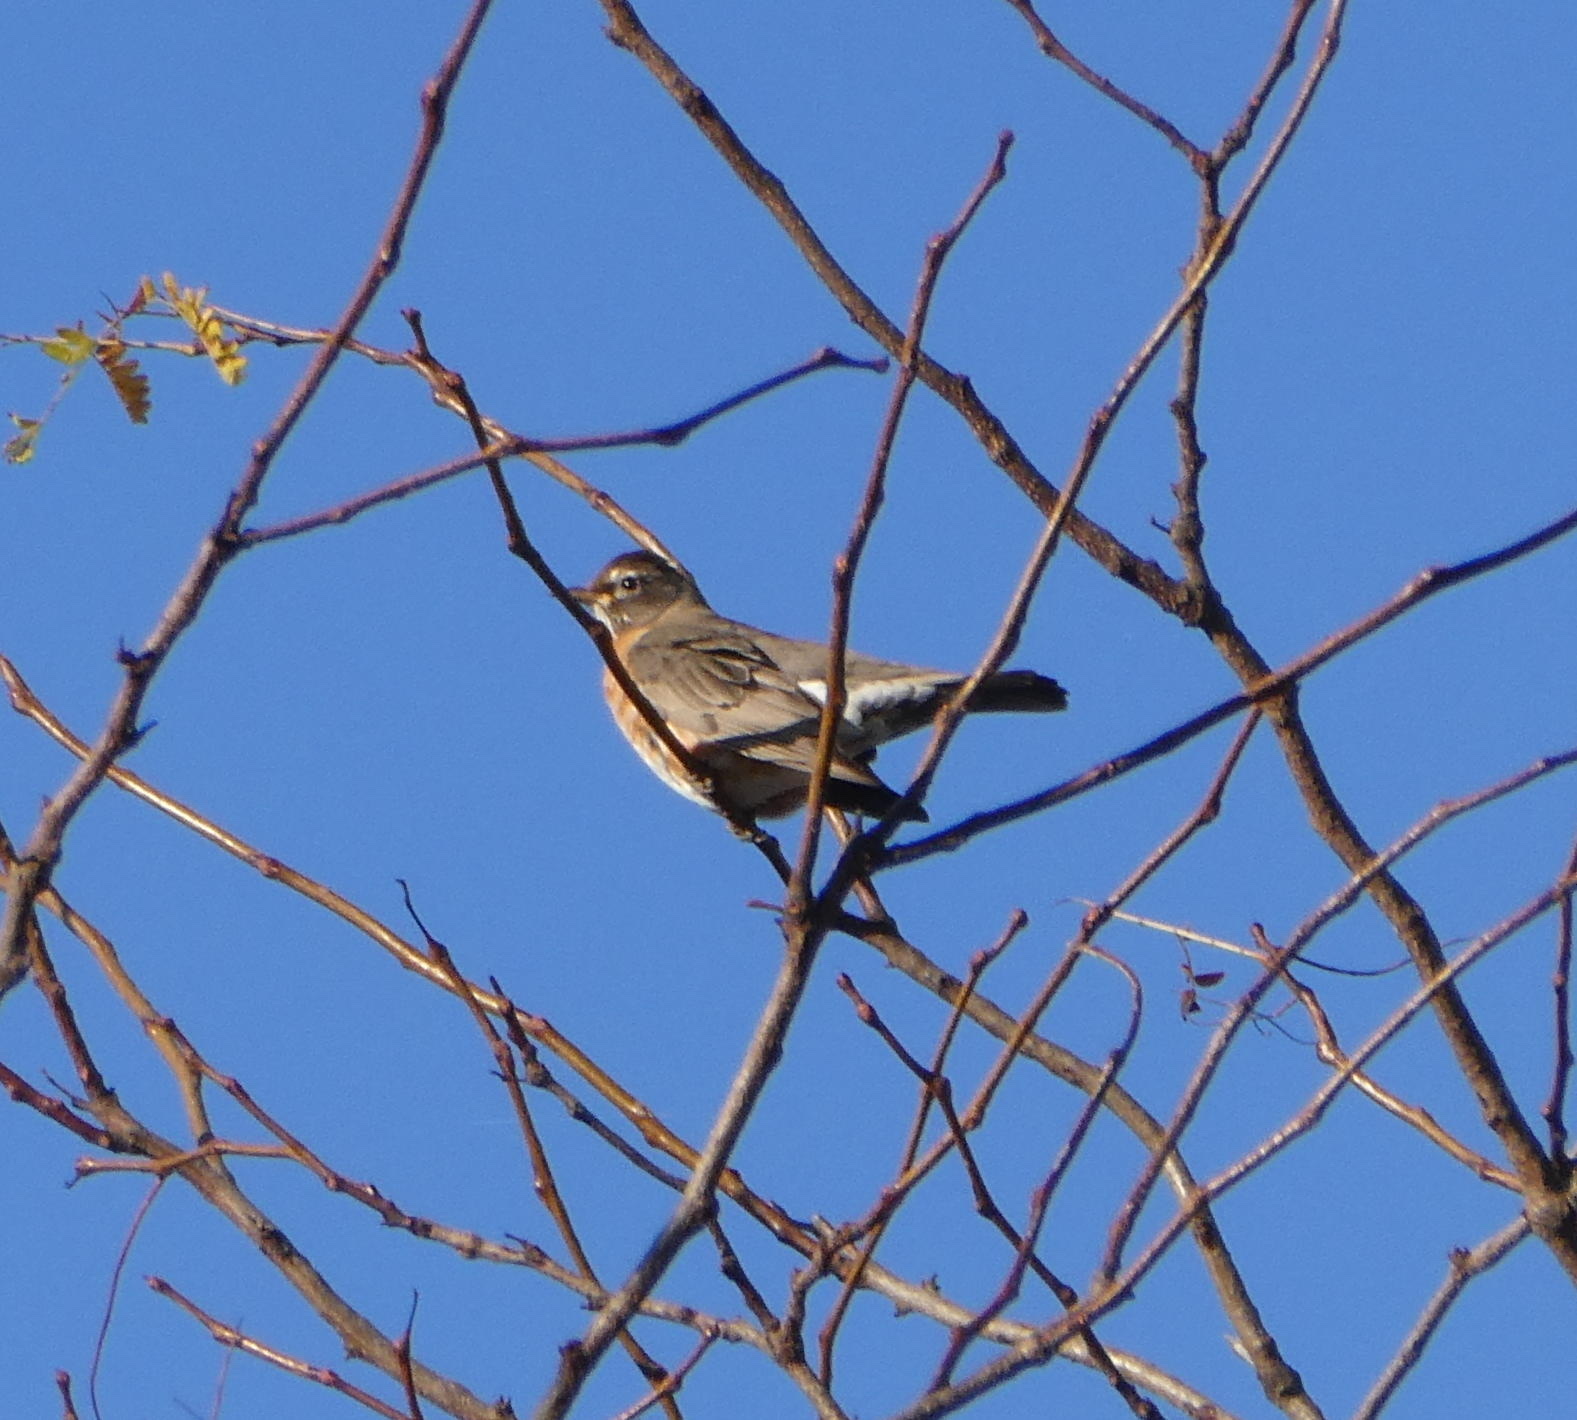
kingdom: Animalia
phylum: Chordata
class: Aves
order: Passeriformes
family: Turdidae
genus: Turdus
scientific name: Turdus migratorius
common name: American robin
